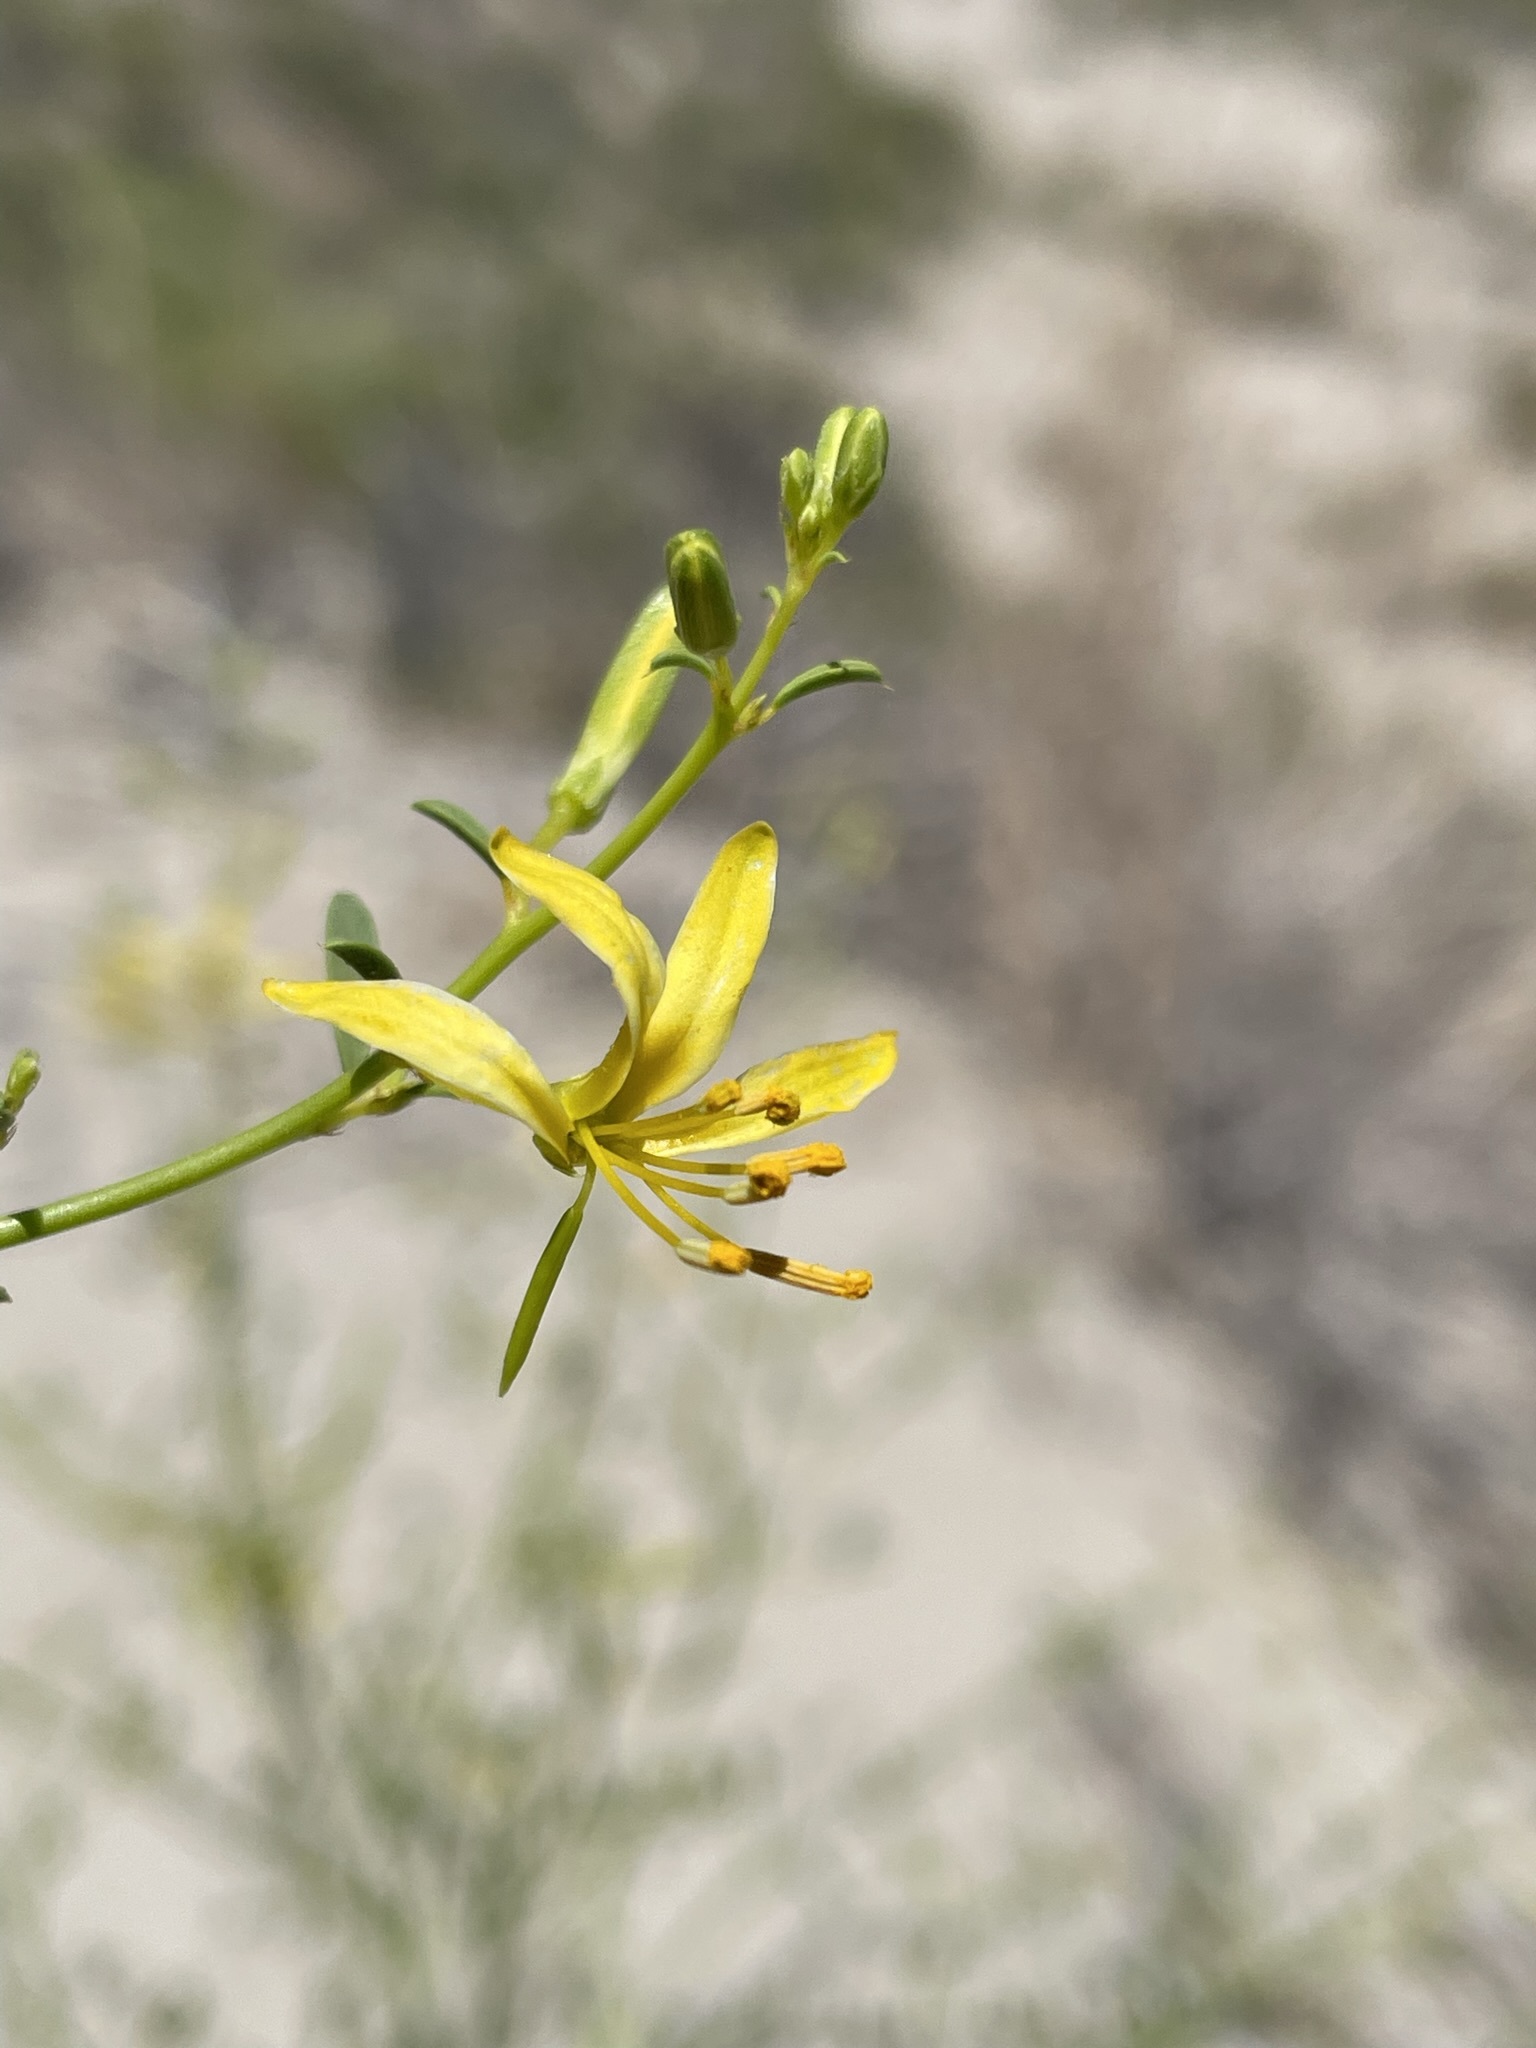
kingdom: Plantae
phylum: Tracheophyta
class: Magnoliopsida
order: Brassicales
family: Cleomaceae
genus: Cleomella
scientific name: Cleomella sparsifolia
